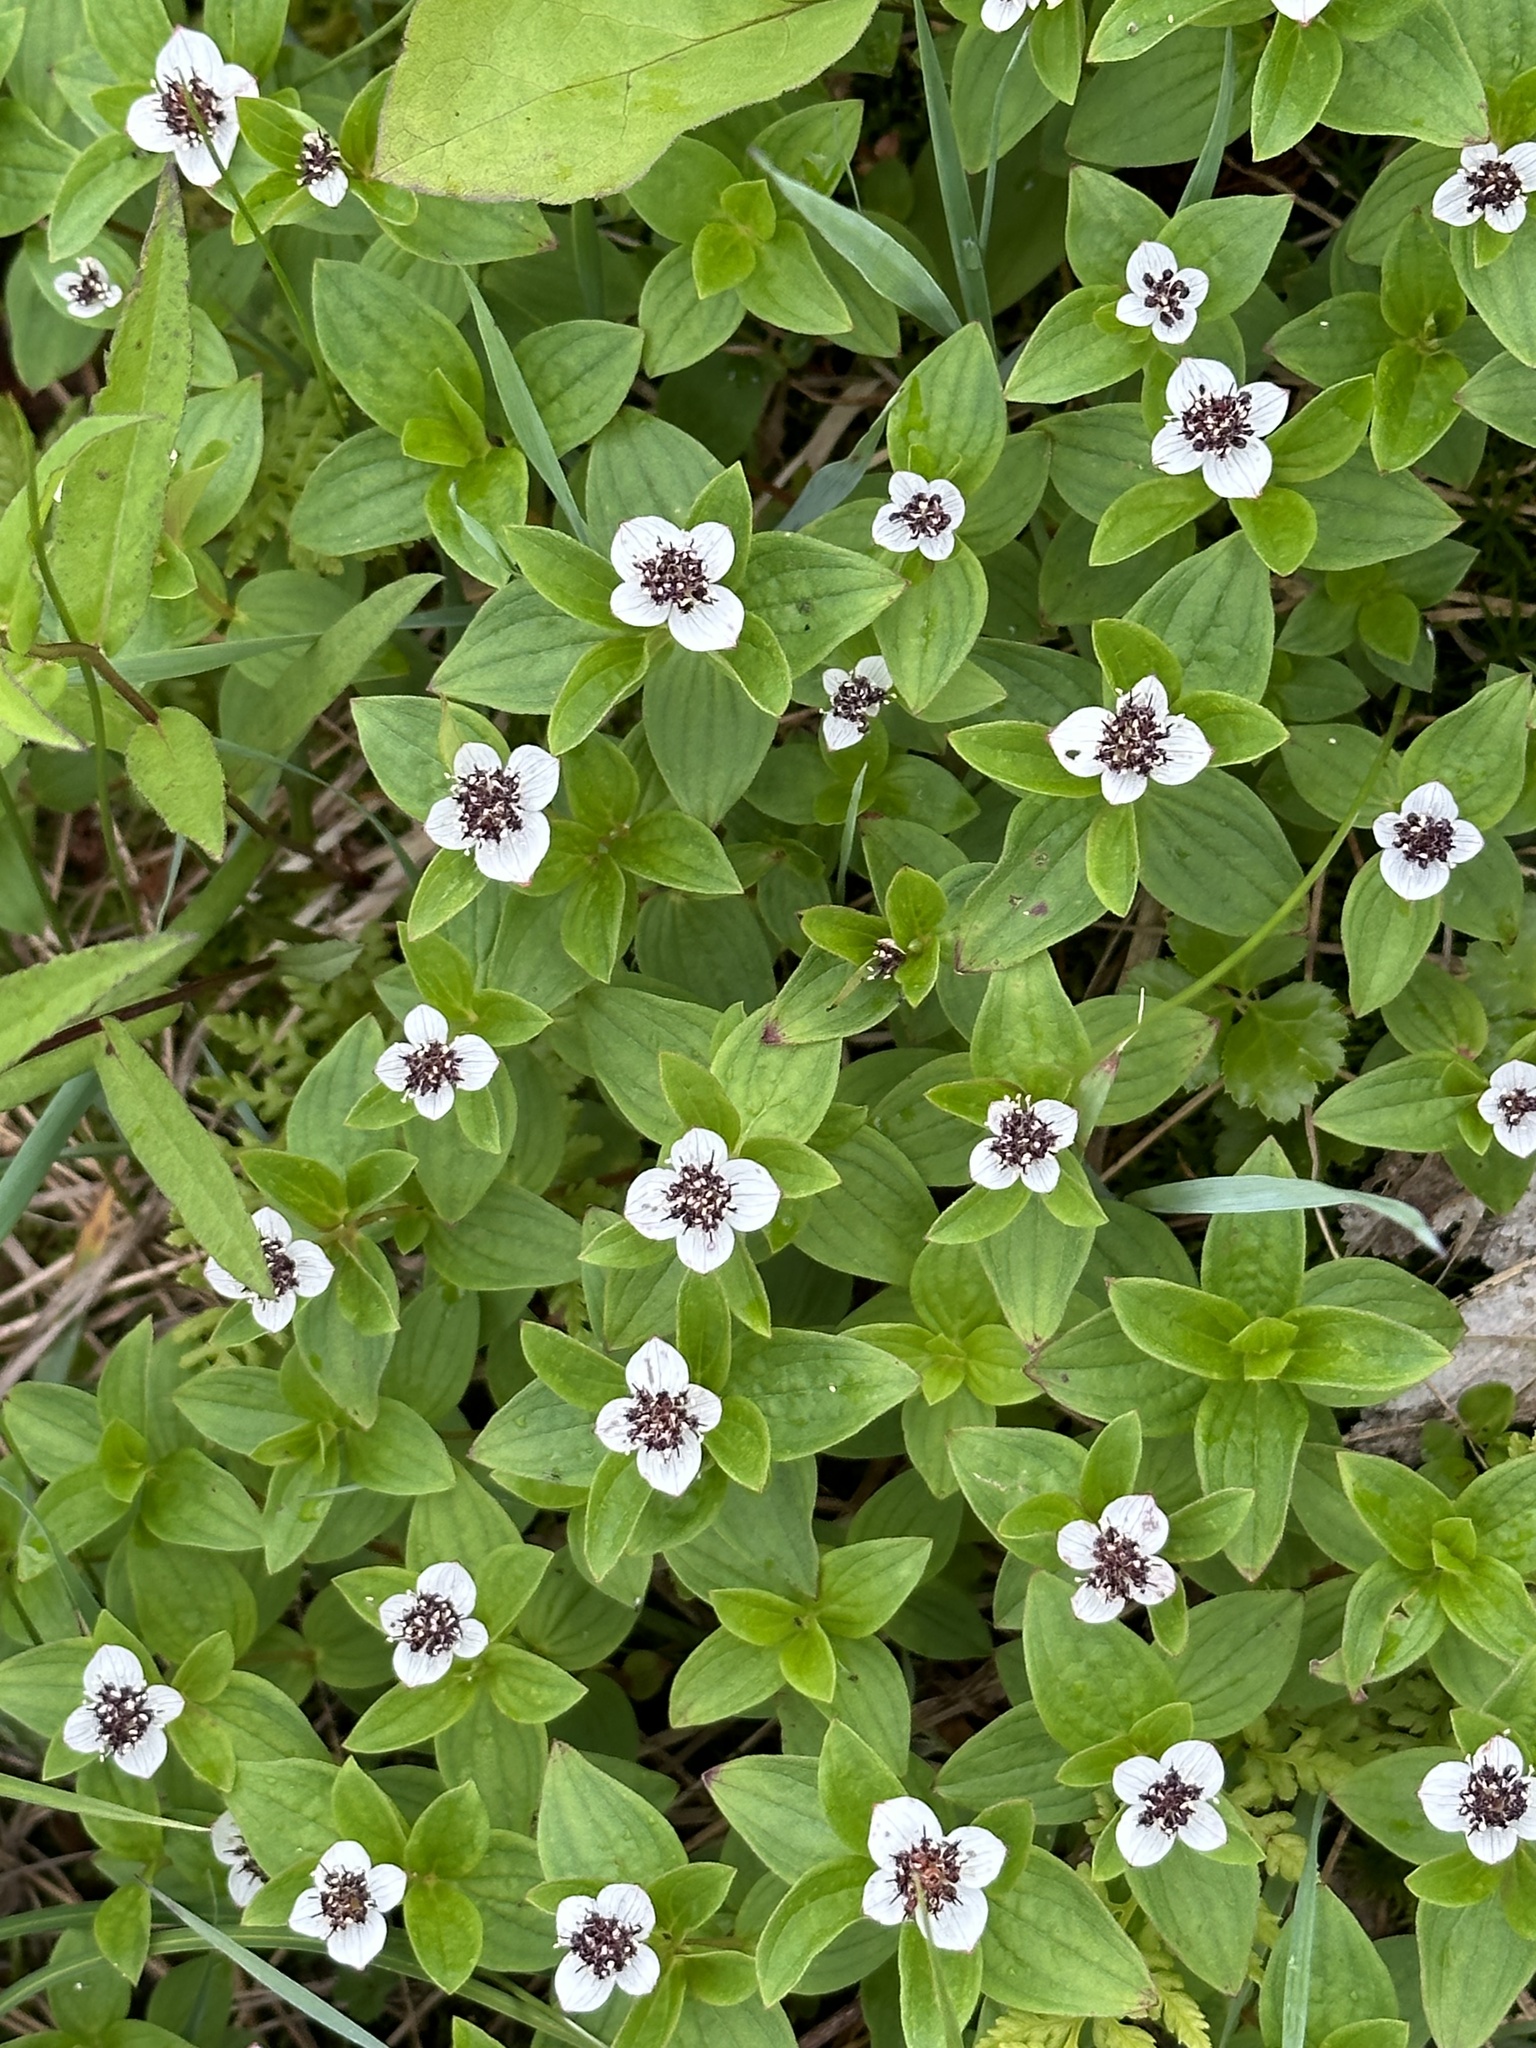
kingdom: Plantae
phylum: Tracheophyta
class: Magnoliopsida
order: Cornales
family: Cornaceae
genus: Cornus
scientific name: Cornus suecica
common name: Dwarf cornel
